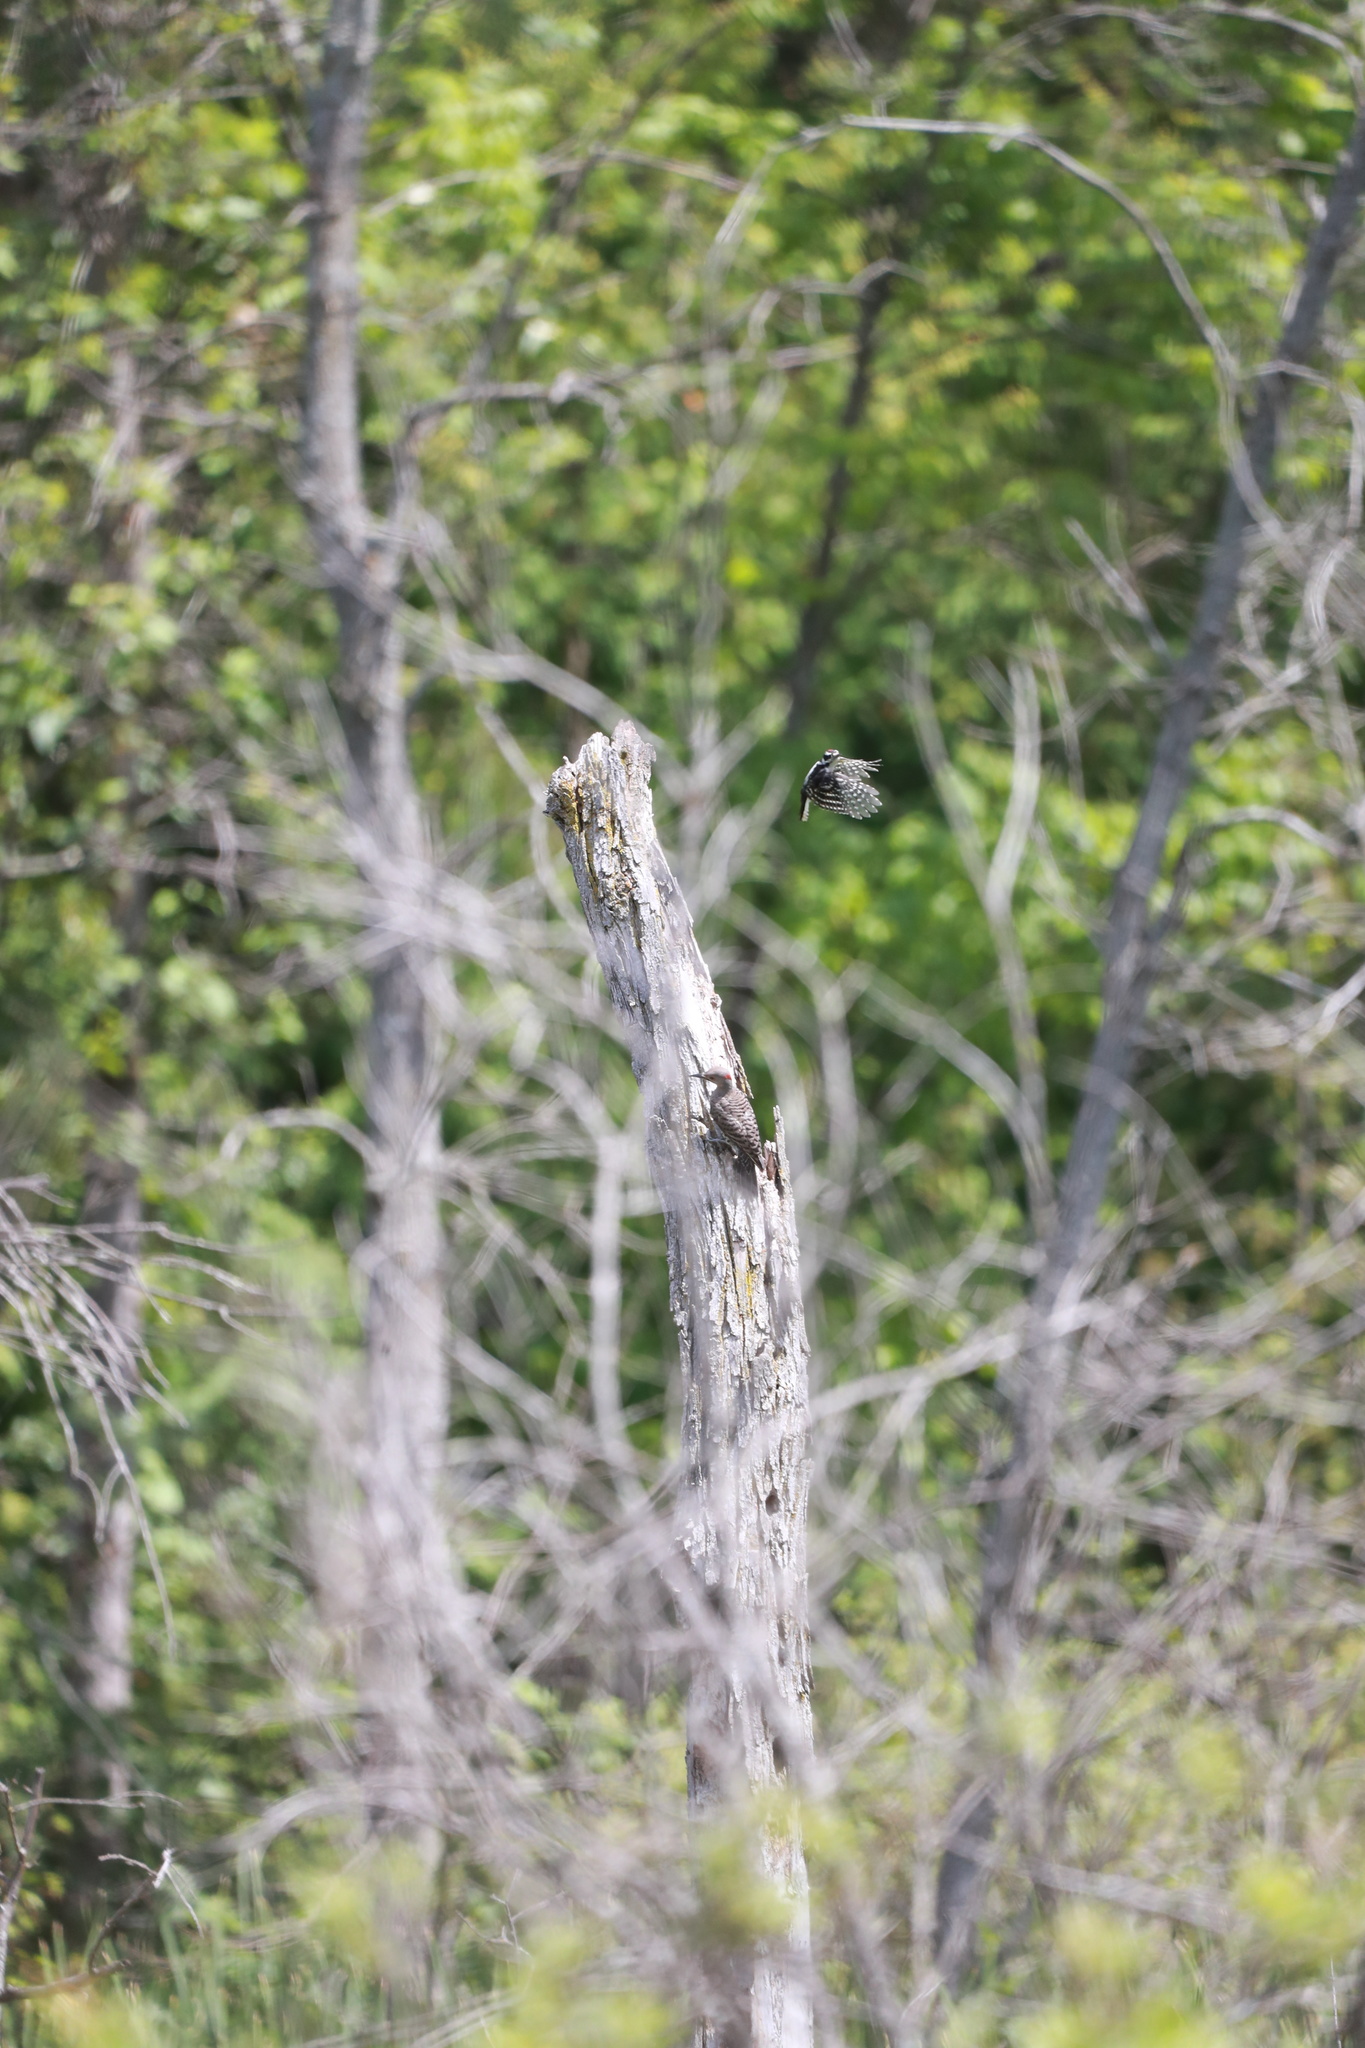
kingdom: Animalia
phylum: Chordata
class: Aves
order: Piciformes
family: Picidae
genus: Colaptes
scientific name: Colaptes auratus
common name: Northern flicker
